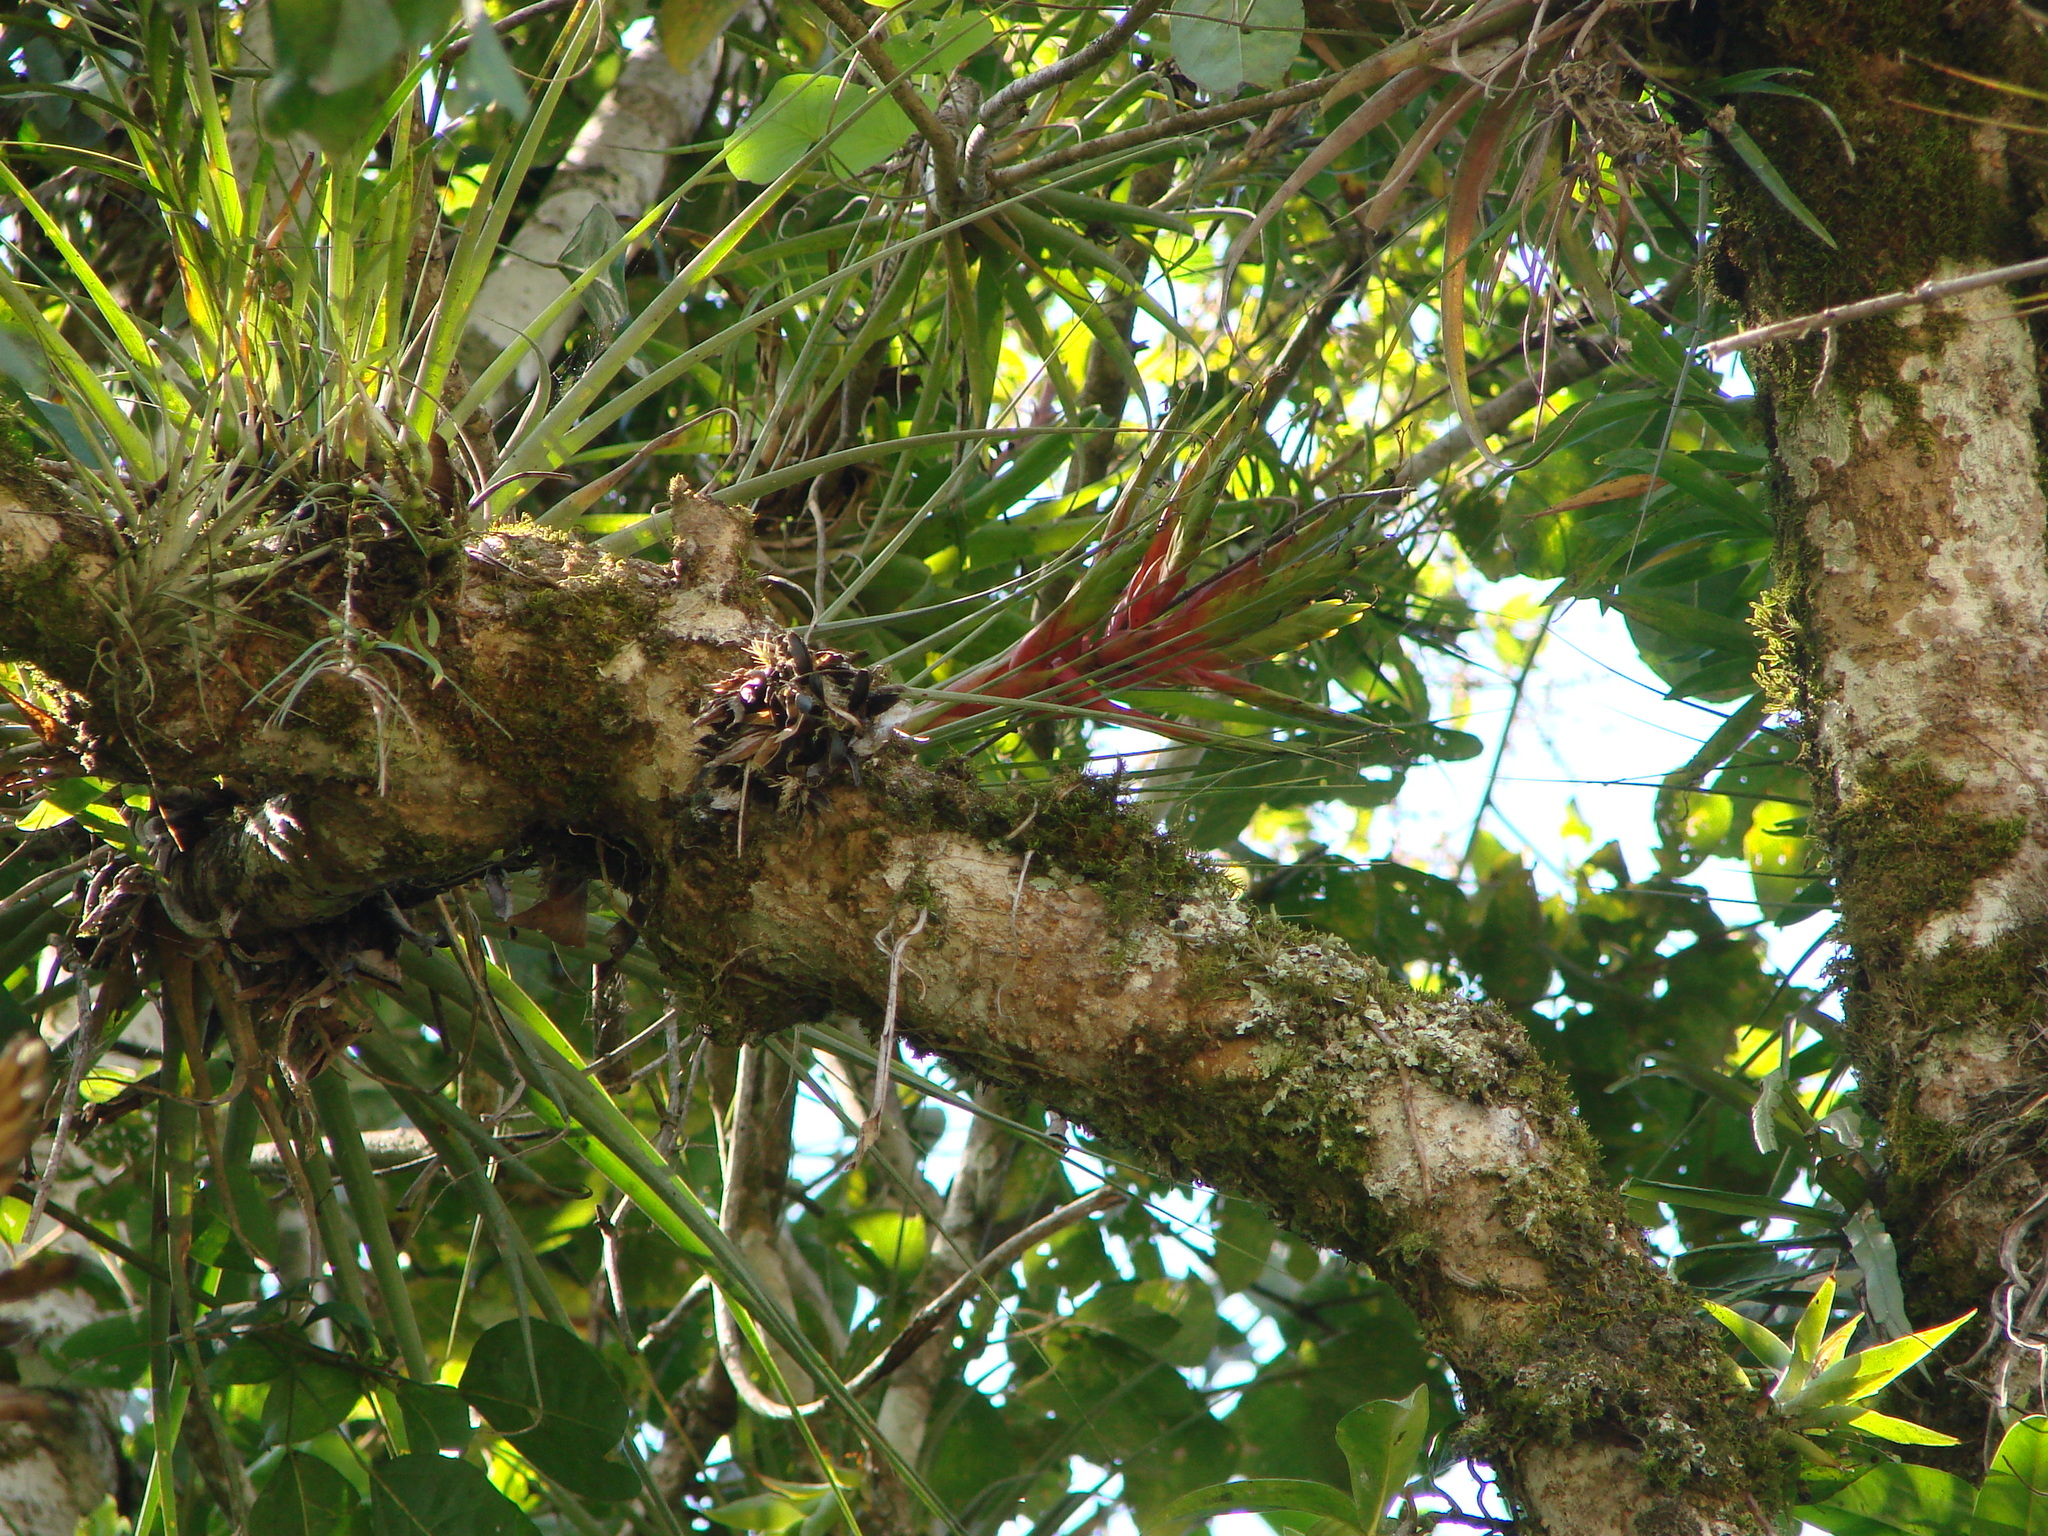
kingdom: Plantae
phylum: Tracheophyta
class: Liliopsida
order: Poales
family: Bromeliaceae
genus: Tillandsia
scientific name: Tillandsia fasciculata
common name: Giant airplant
